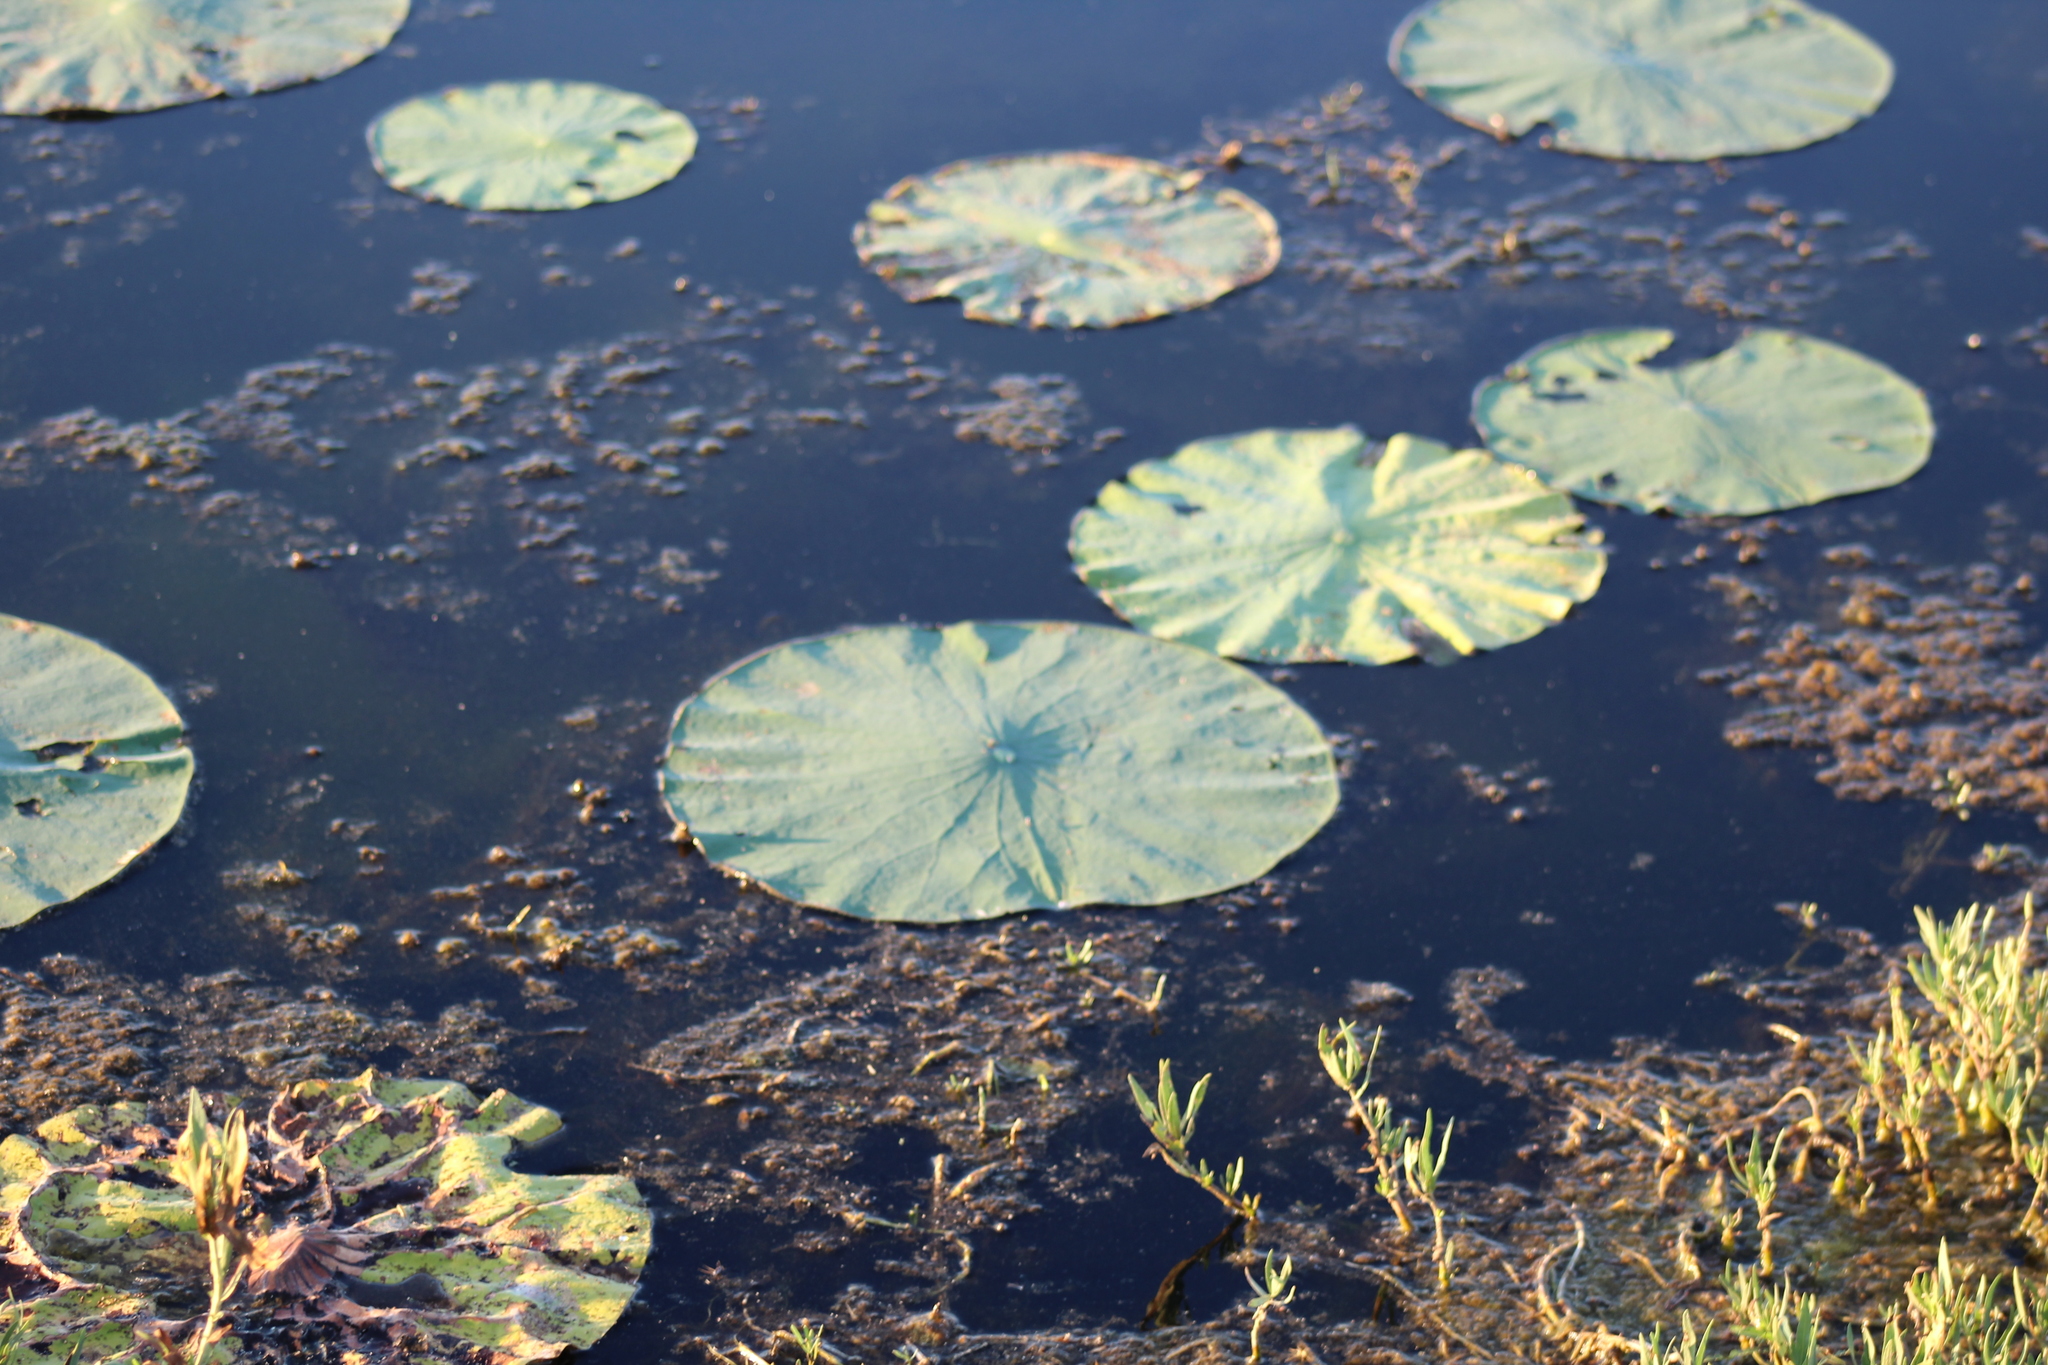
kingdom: Plantae
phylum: Tracheophyta
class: Magnoliopsida
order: Proteales
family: Nelumbonaceae
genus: Nelumbo
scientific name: Nelumbo lutea
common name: American lotus
